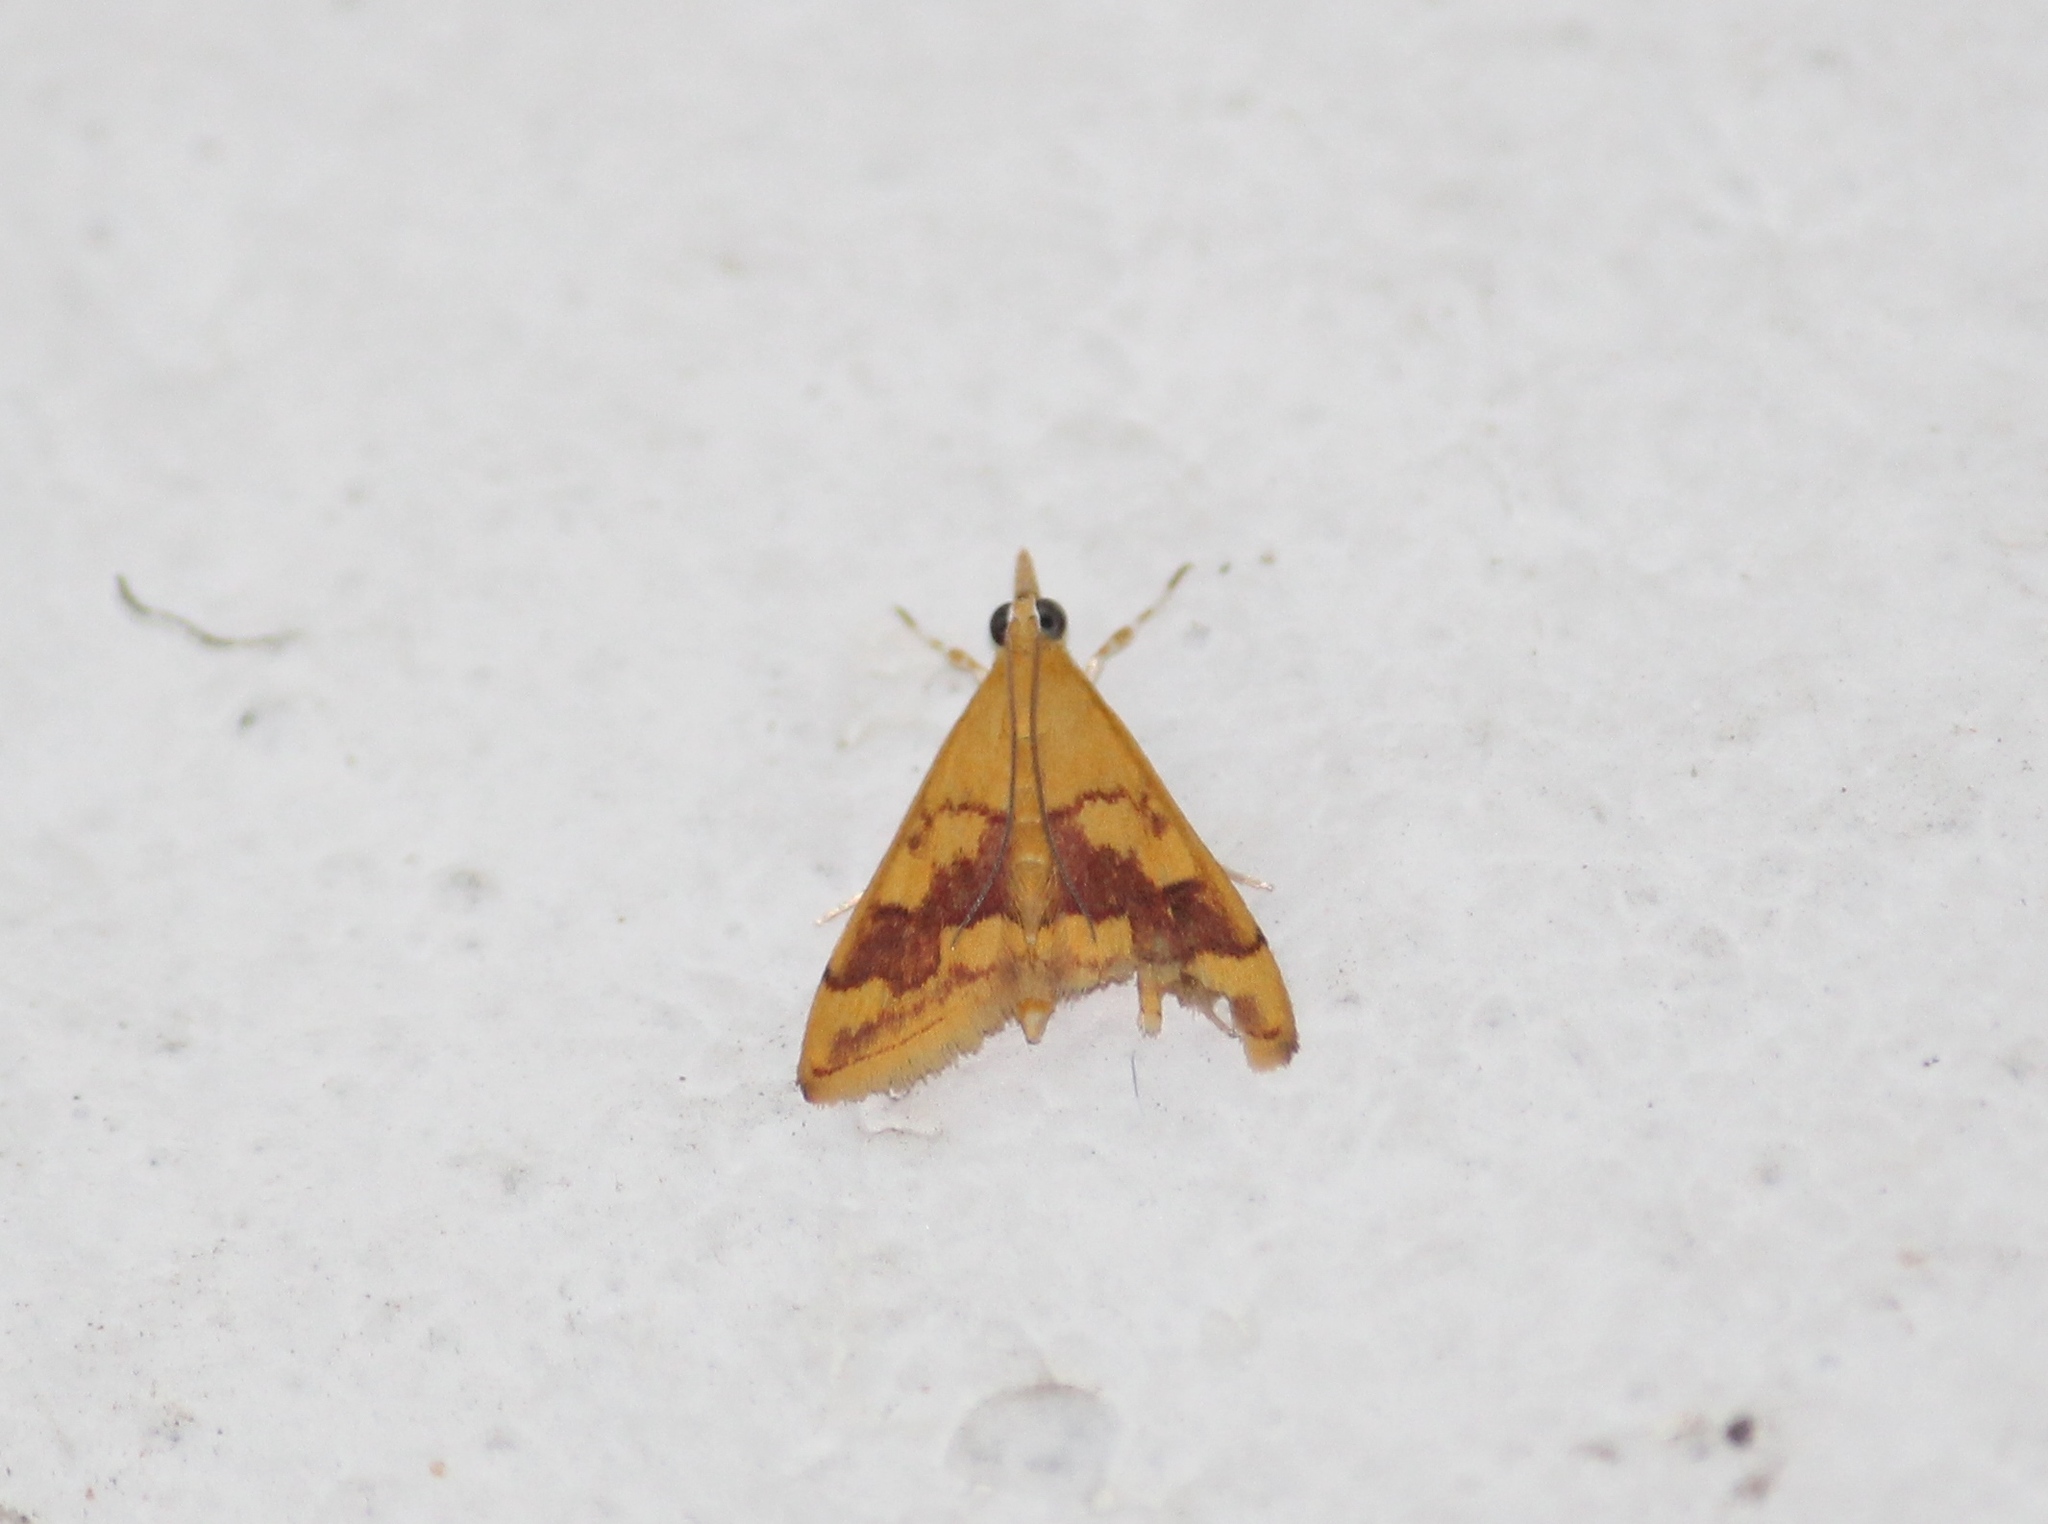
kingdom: Animalia
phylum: Arthropoda
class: Insecta
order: Lepidoptera
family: Crambidae
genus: Pyrausta
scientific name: Pyrausta phoenicealis
